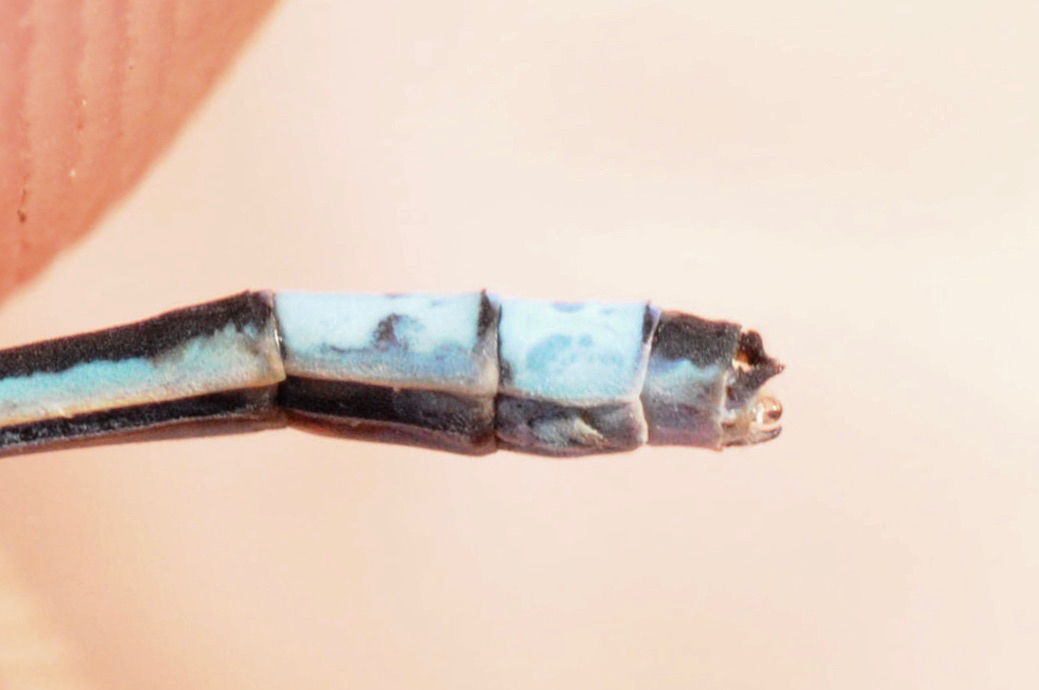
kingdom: Animalia
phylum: Arthropoda
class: Insecta
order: Odonata
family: Coenagrionidae
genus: Enallagma
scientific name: Enallagma annexum
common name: Northern bluet
